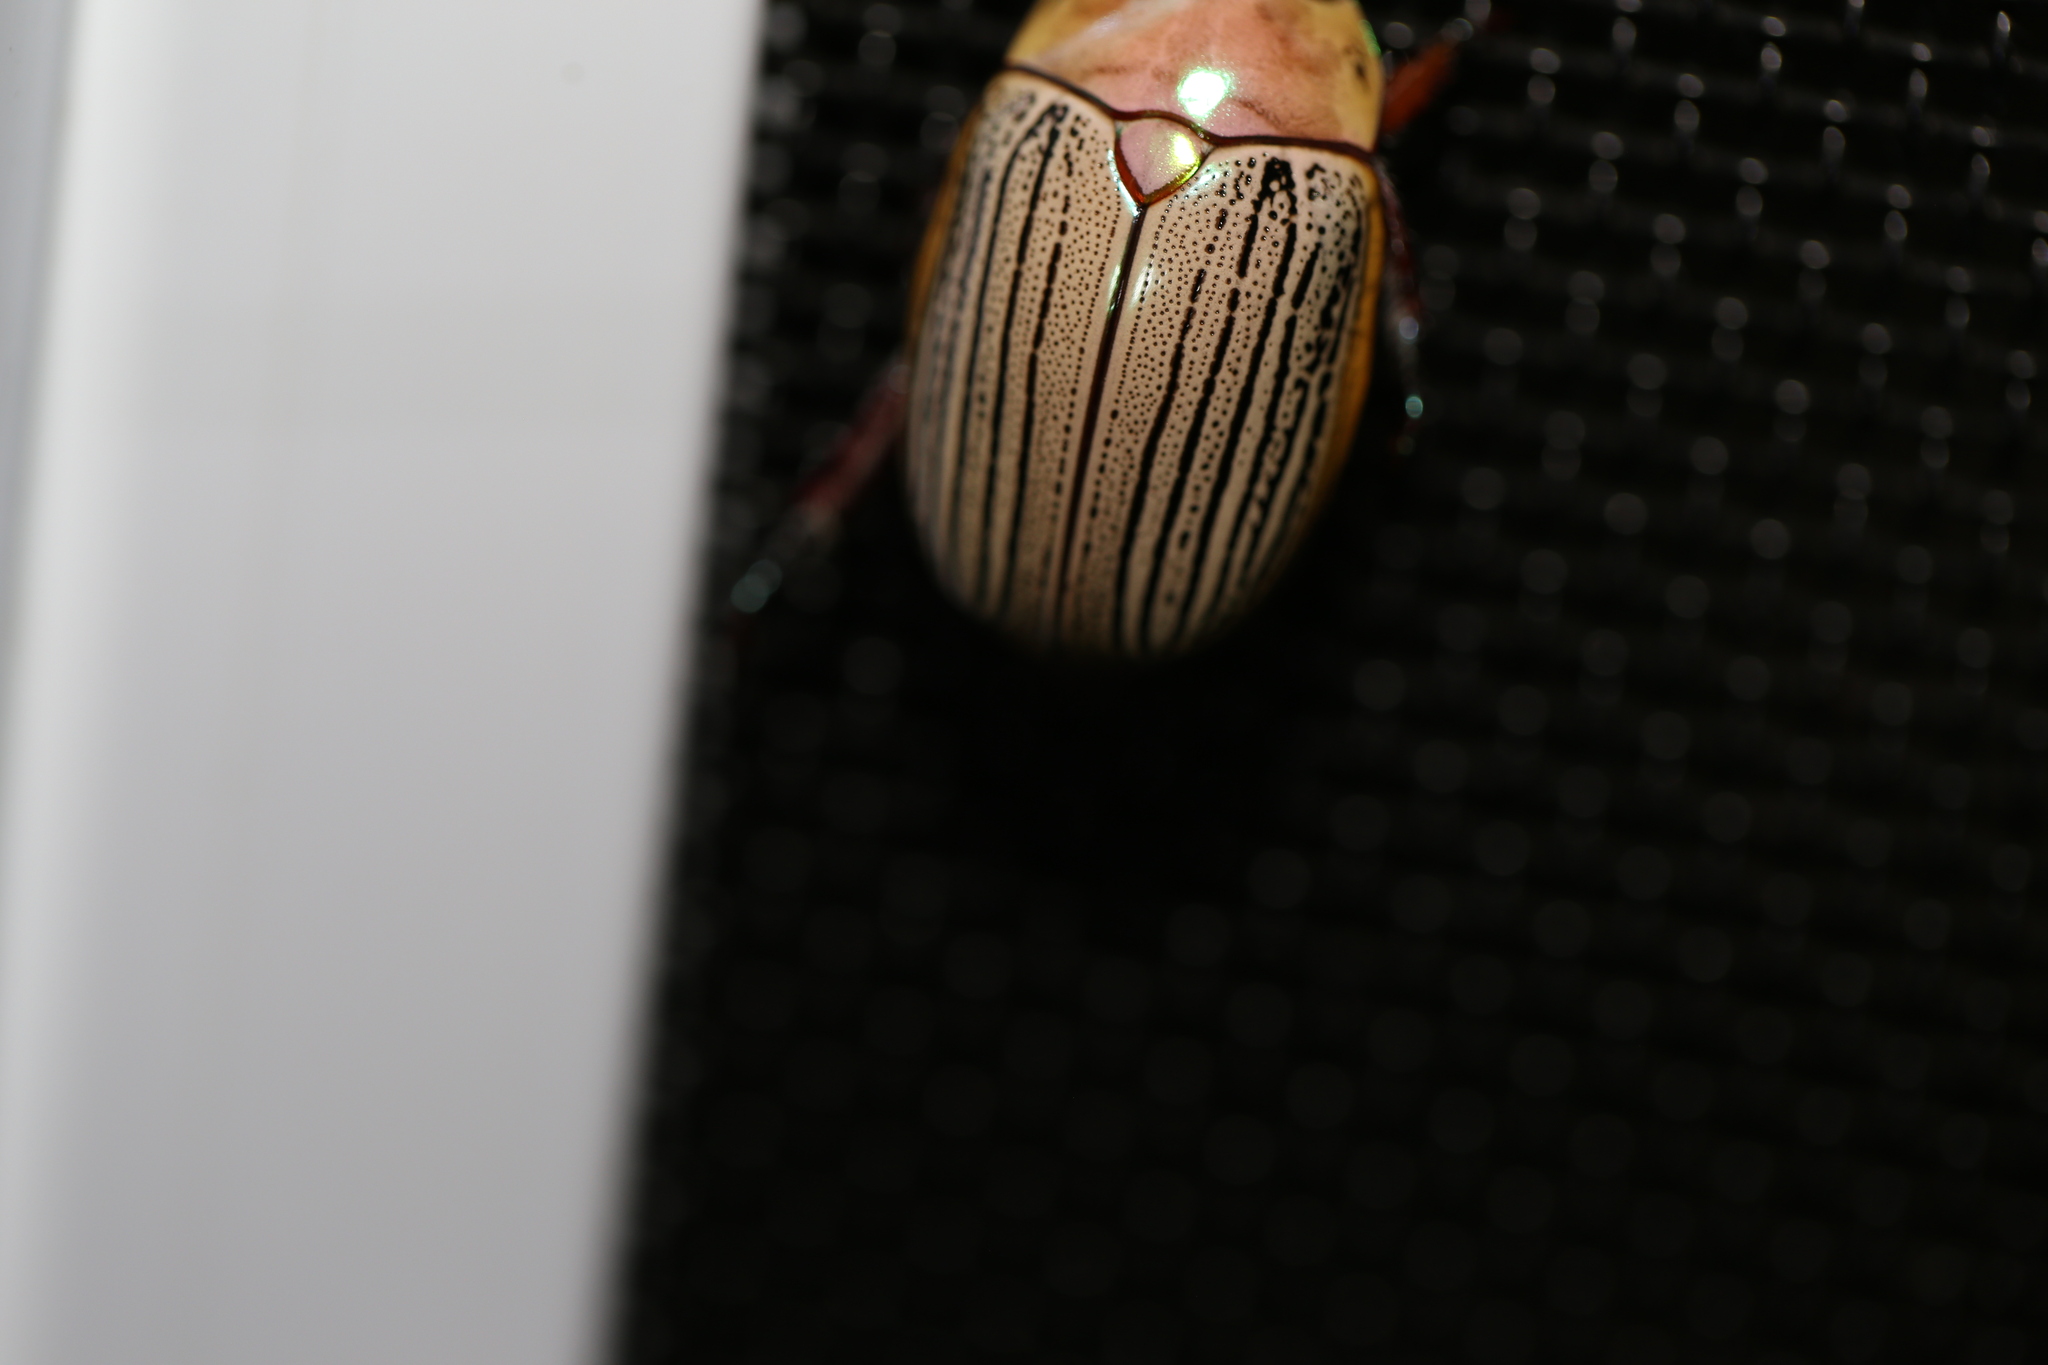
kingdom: Animalia
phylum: Arthropoda
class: Insecta
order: Coleoptera
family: Scarabaeidae
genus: Anoplognathus
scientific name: Anoplognathus boisduvali
